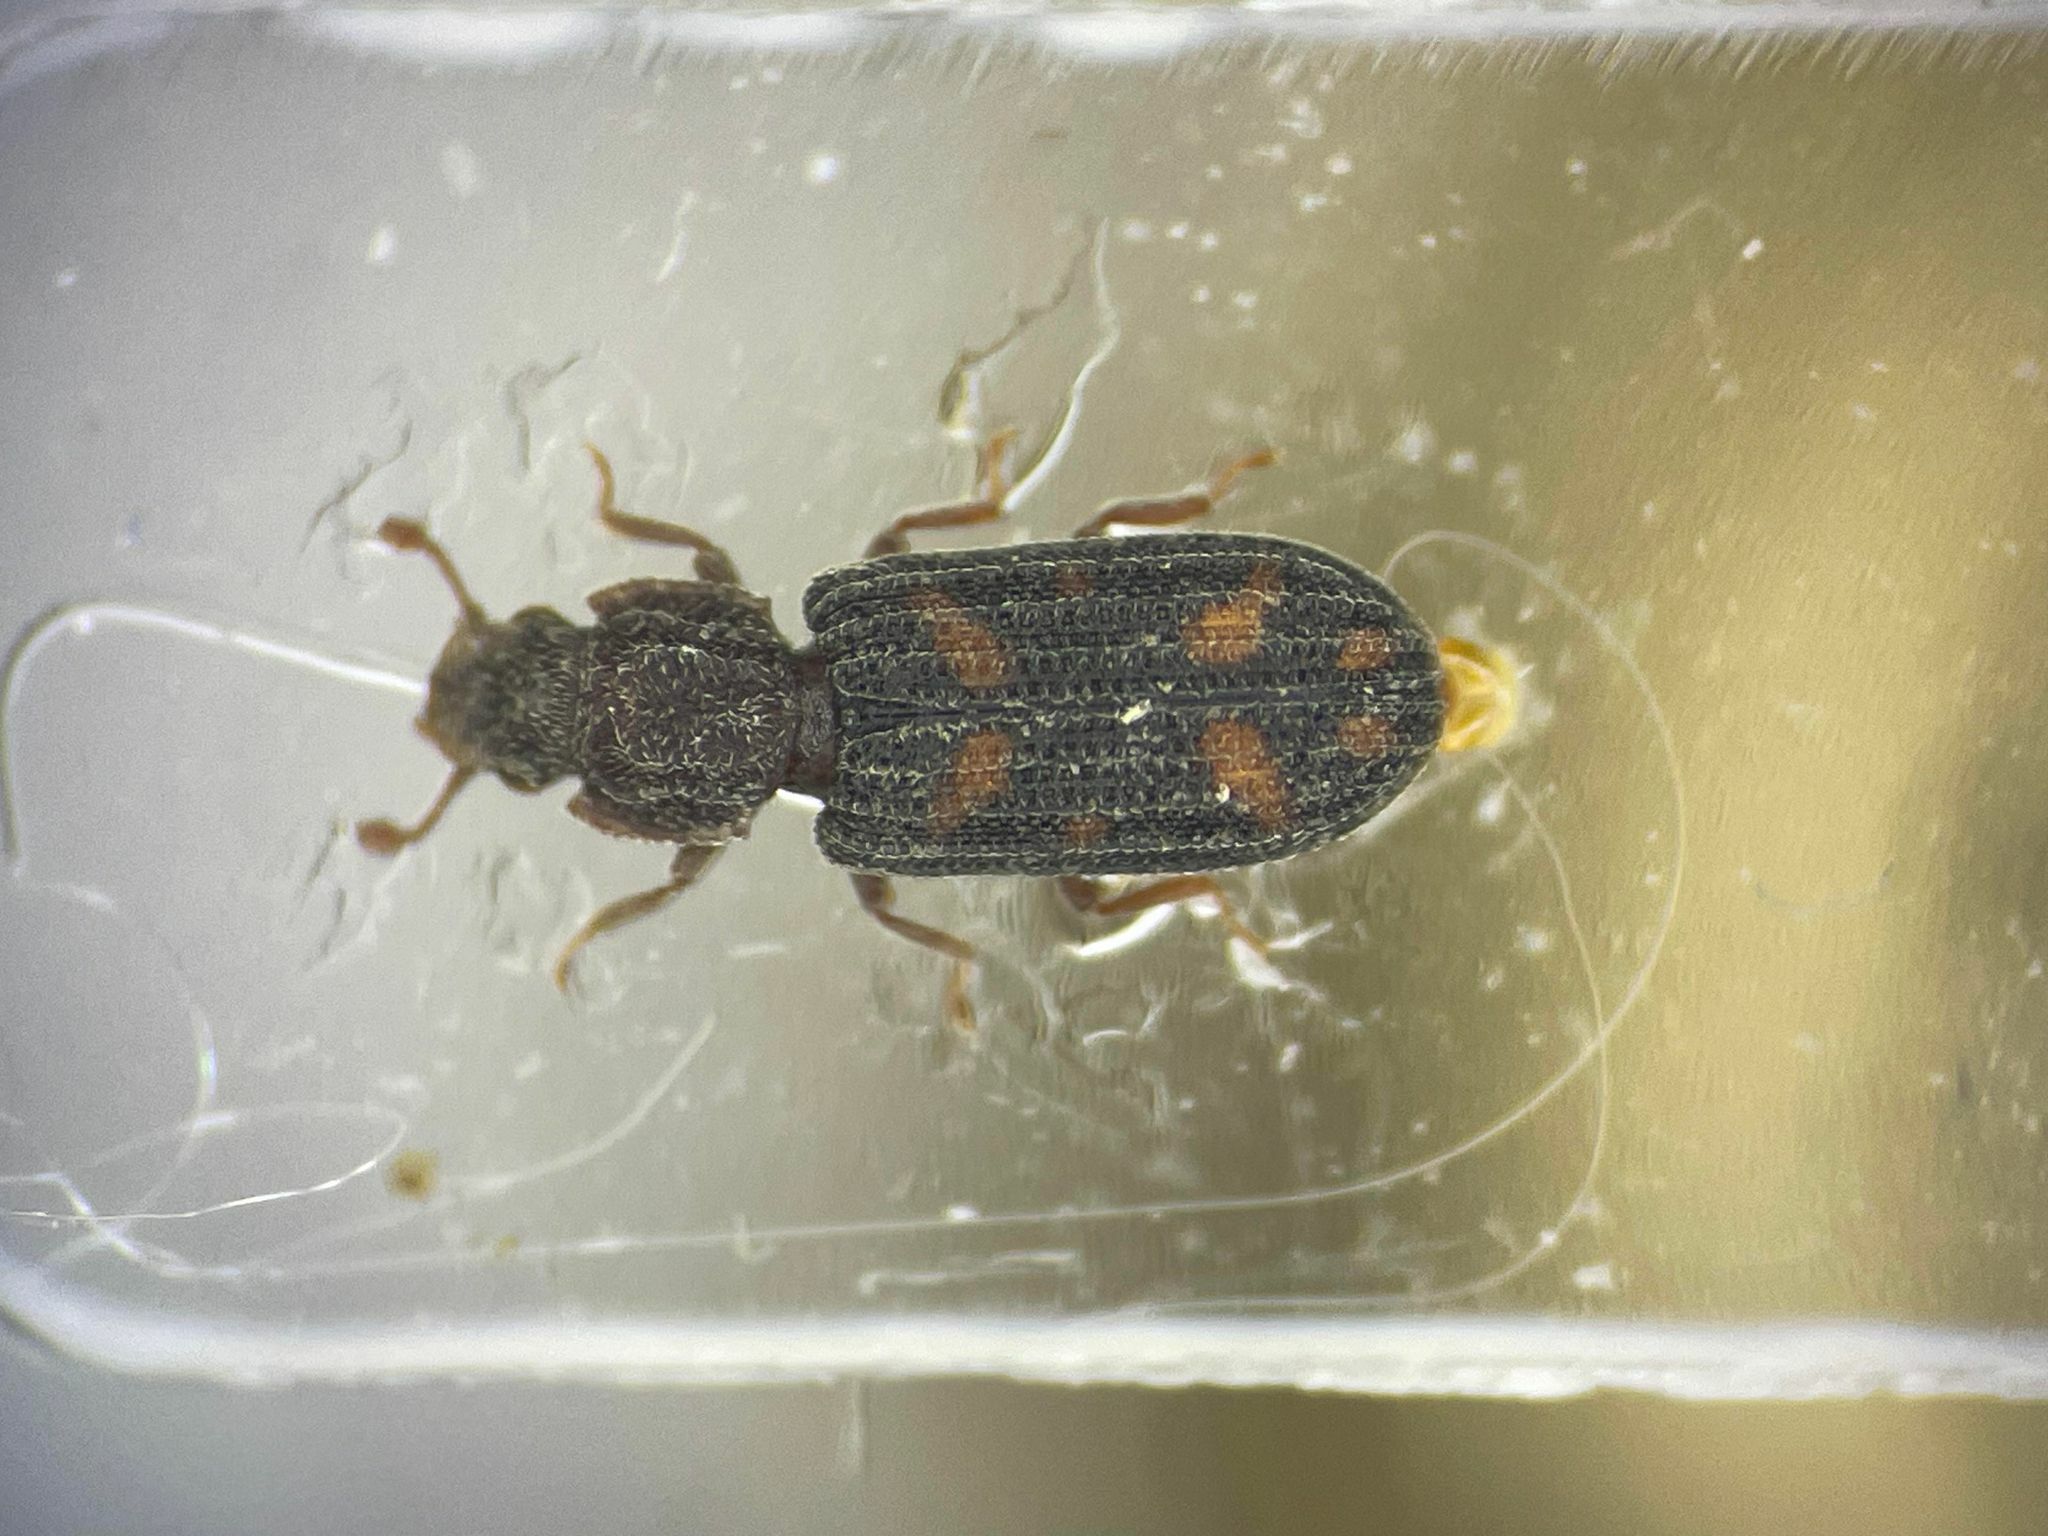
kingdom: Animalia
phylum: Arthropoda
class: Insecta
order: Coleoptera
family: Zopheridae
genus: Bitoma
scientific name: Bitoma quadriguttata
